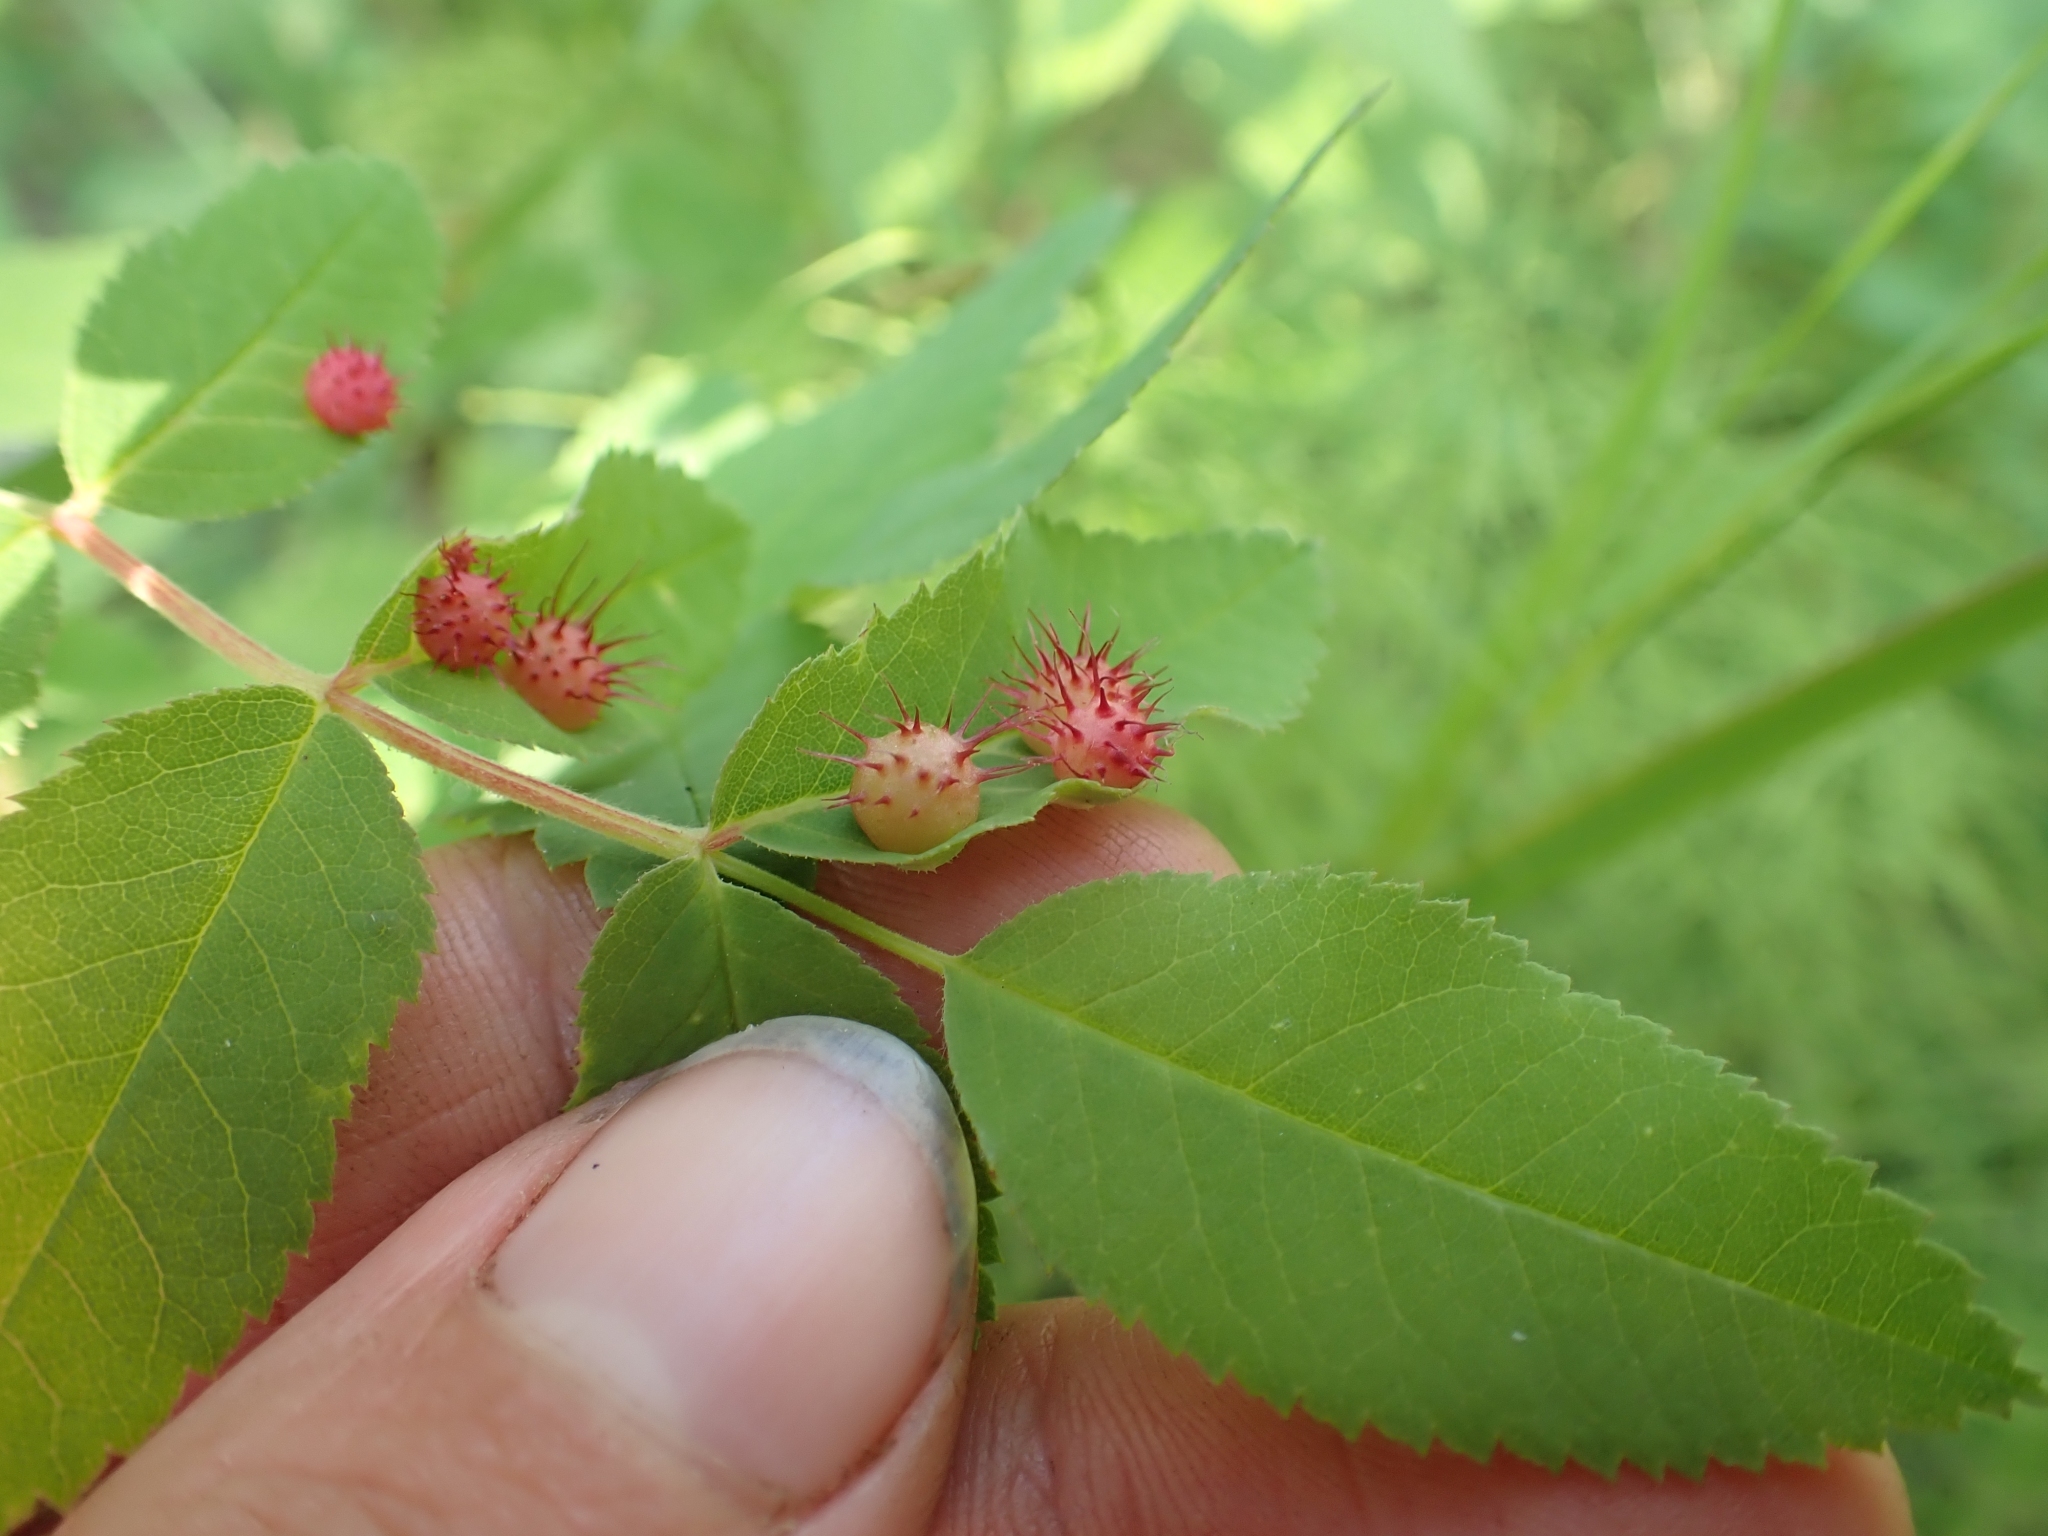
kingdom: Animalia
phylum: Arthropoda
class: Insecta
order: Hymenoptera
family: Cynipidae
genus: Diplolepis
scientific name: Diplolepis polita
